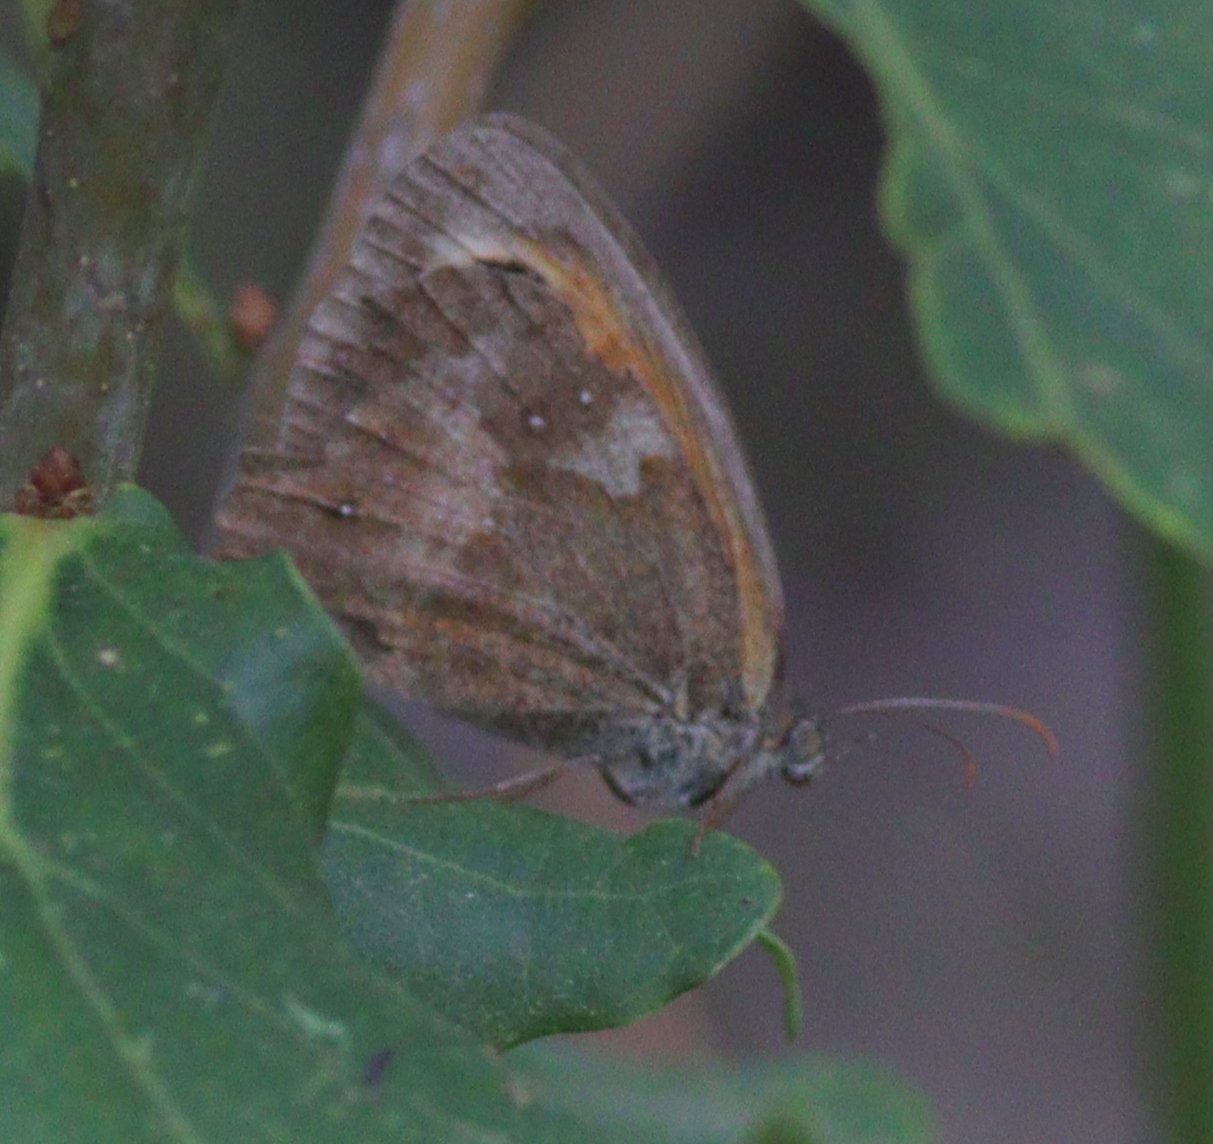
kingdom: Animalia
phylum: Arthropoda
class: Insecta
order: Lepidoptera
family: Nymphalidae
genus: Pyronia
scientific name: Pyronia tithonus
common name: Gatekeeper
